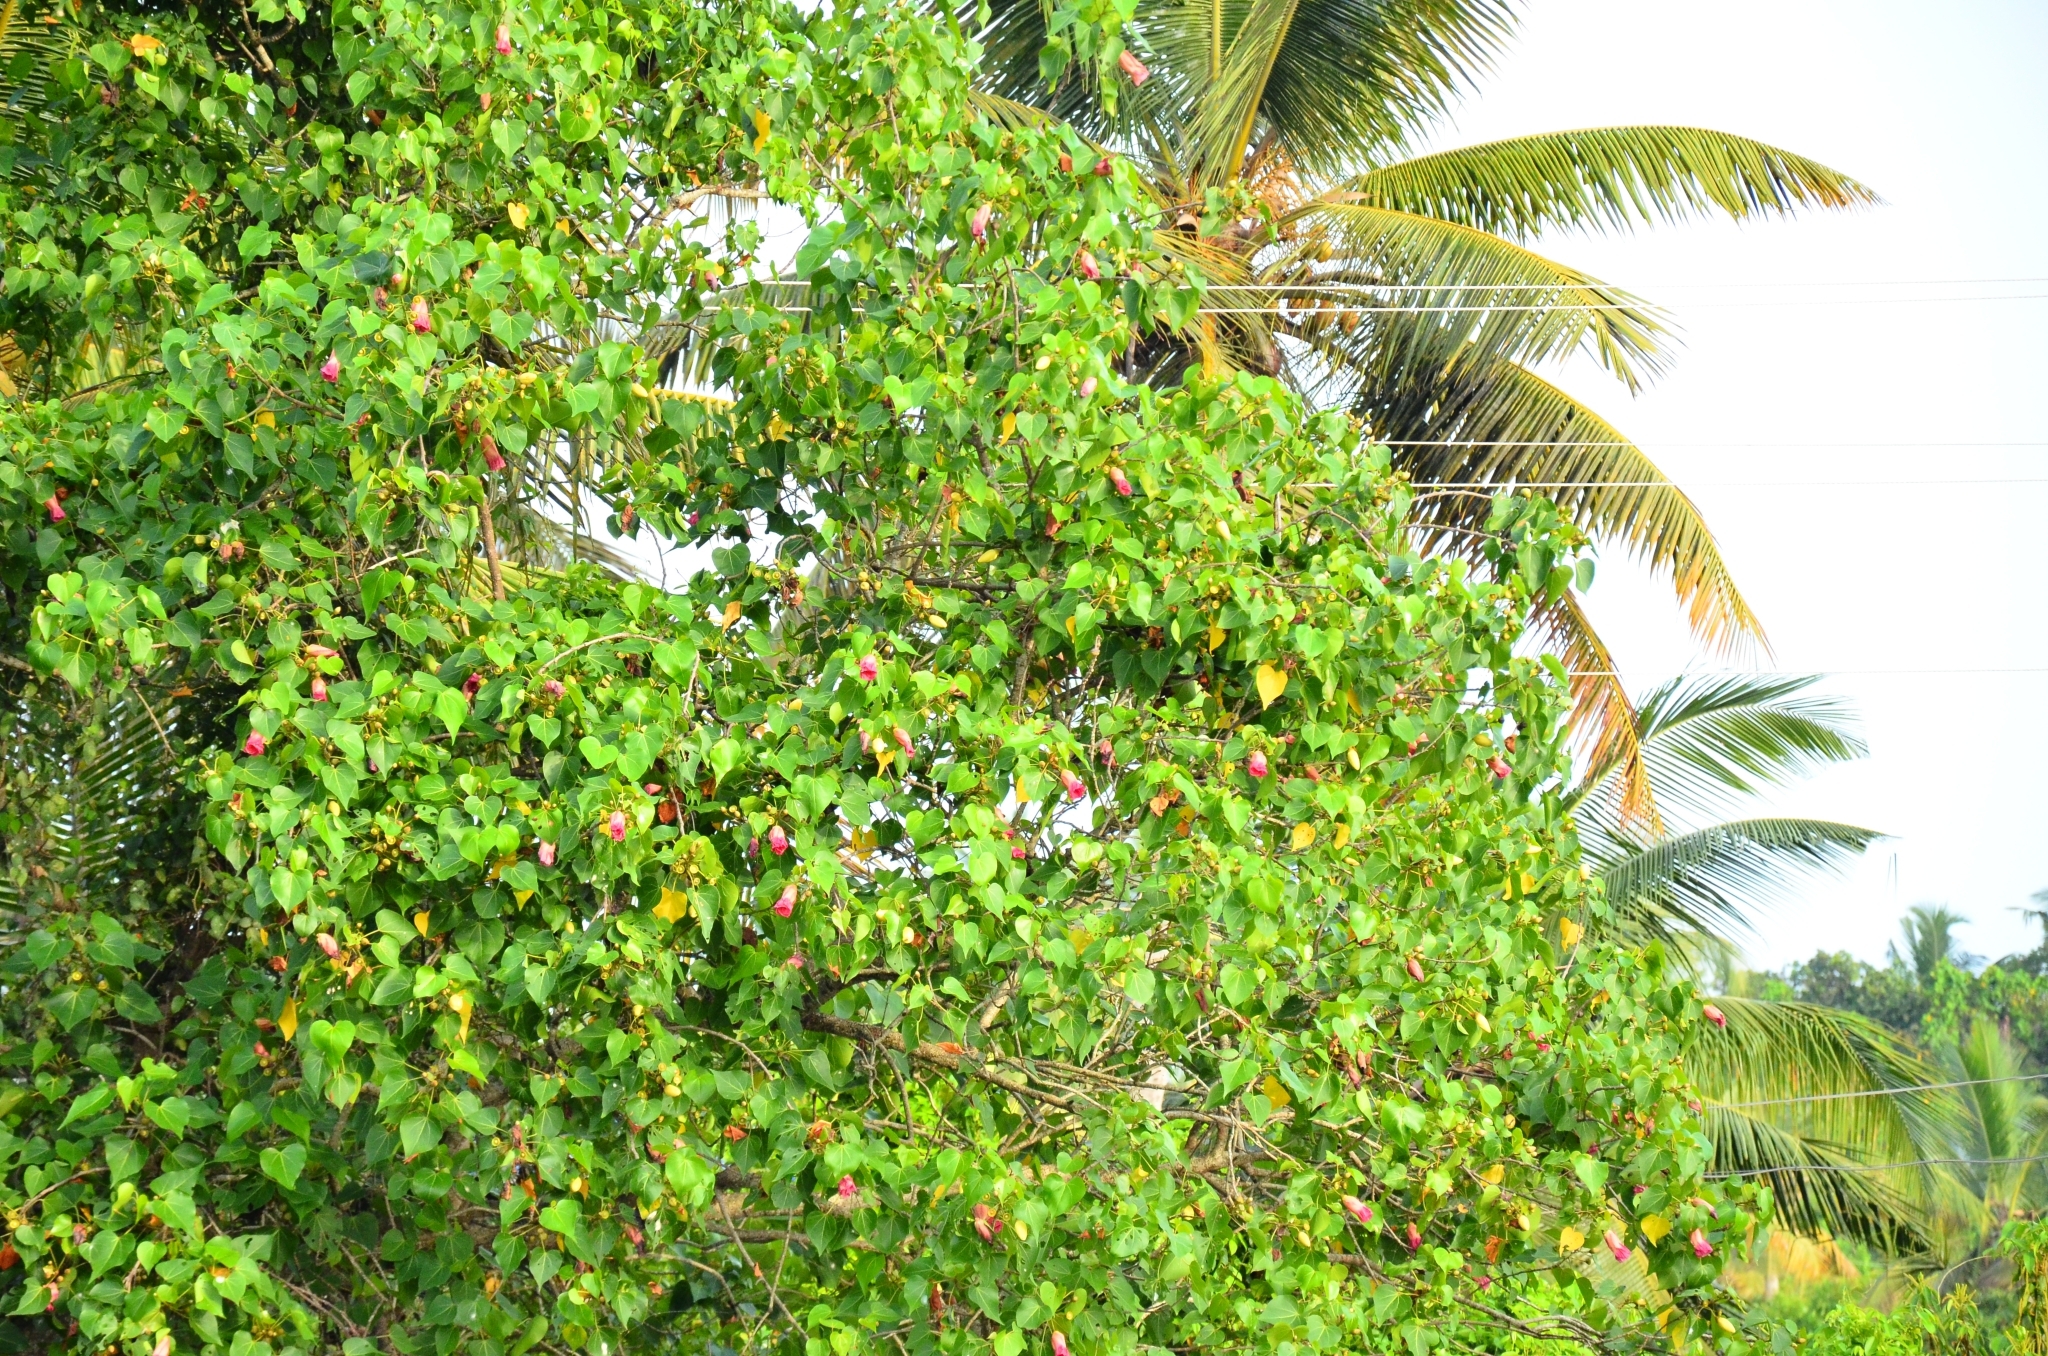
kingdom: Plantae
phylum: Tracheophyta
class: Magnoliopsida
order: Malvales
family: Malvaceae
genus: Thespesia
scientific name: Thespesia populnea
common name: Seaside mahoe
